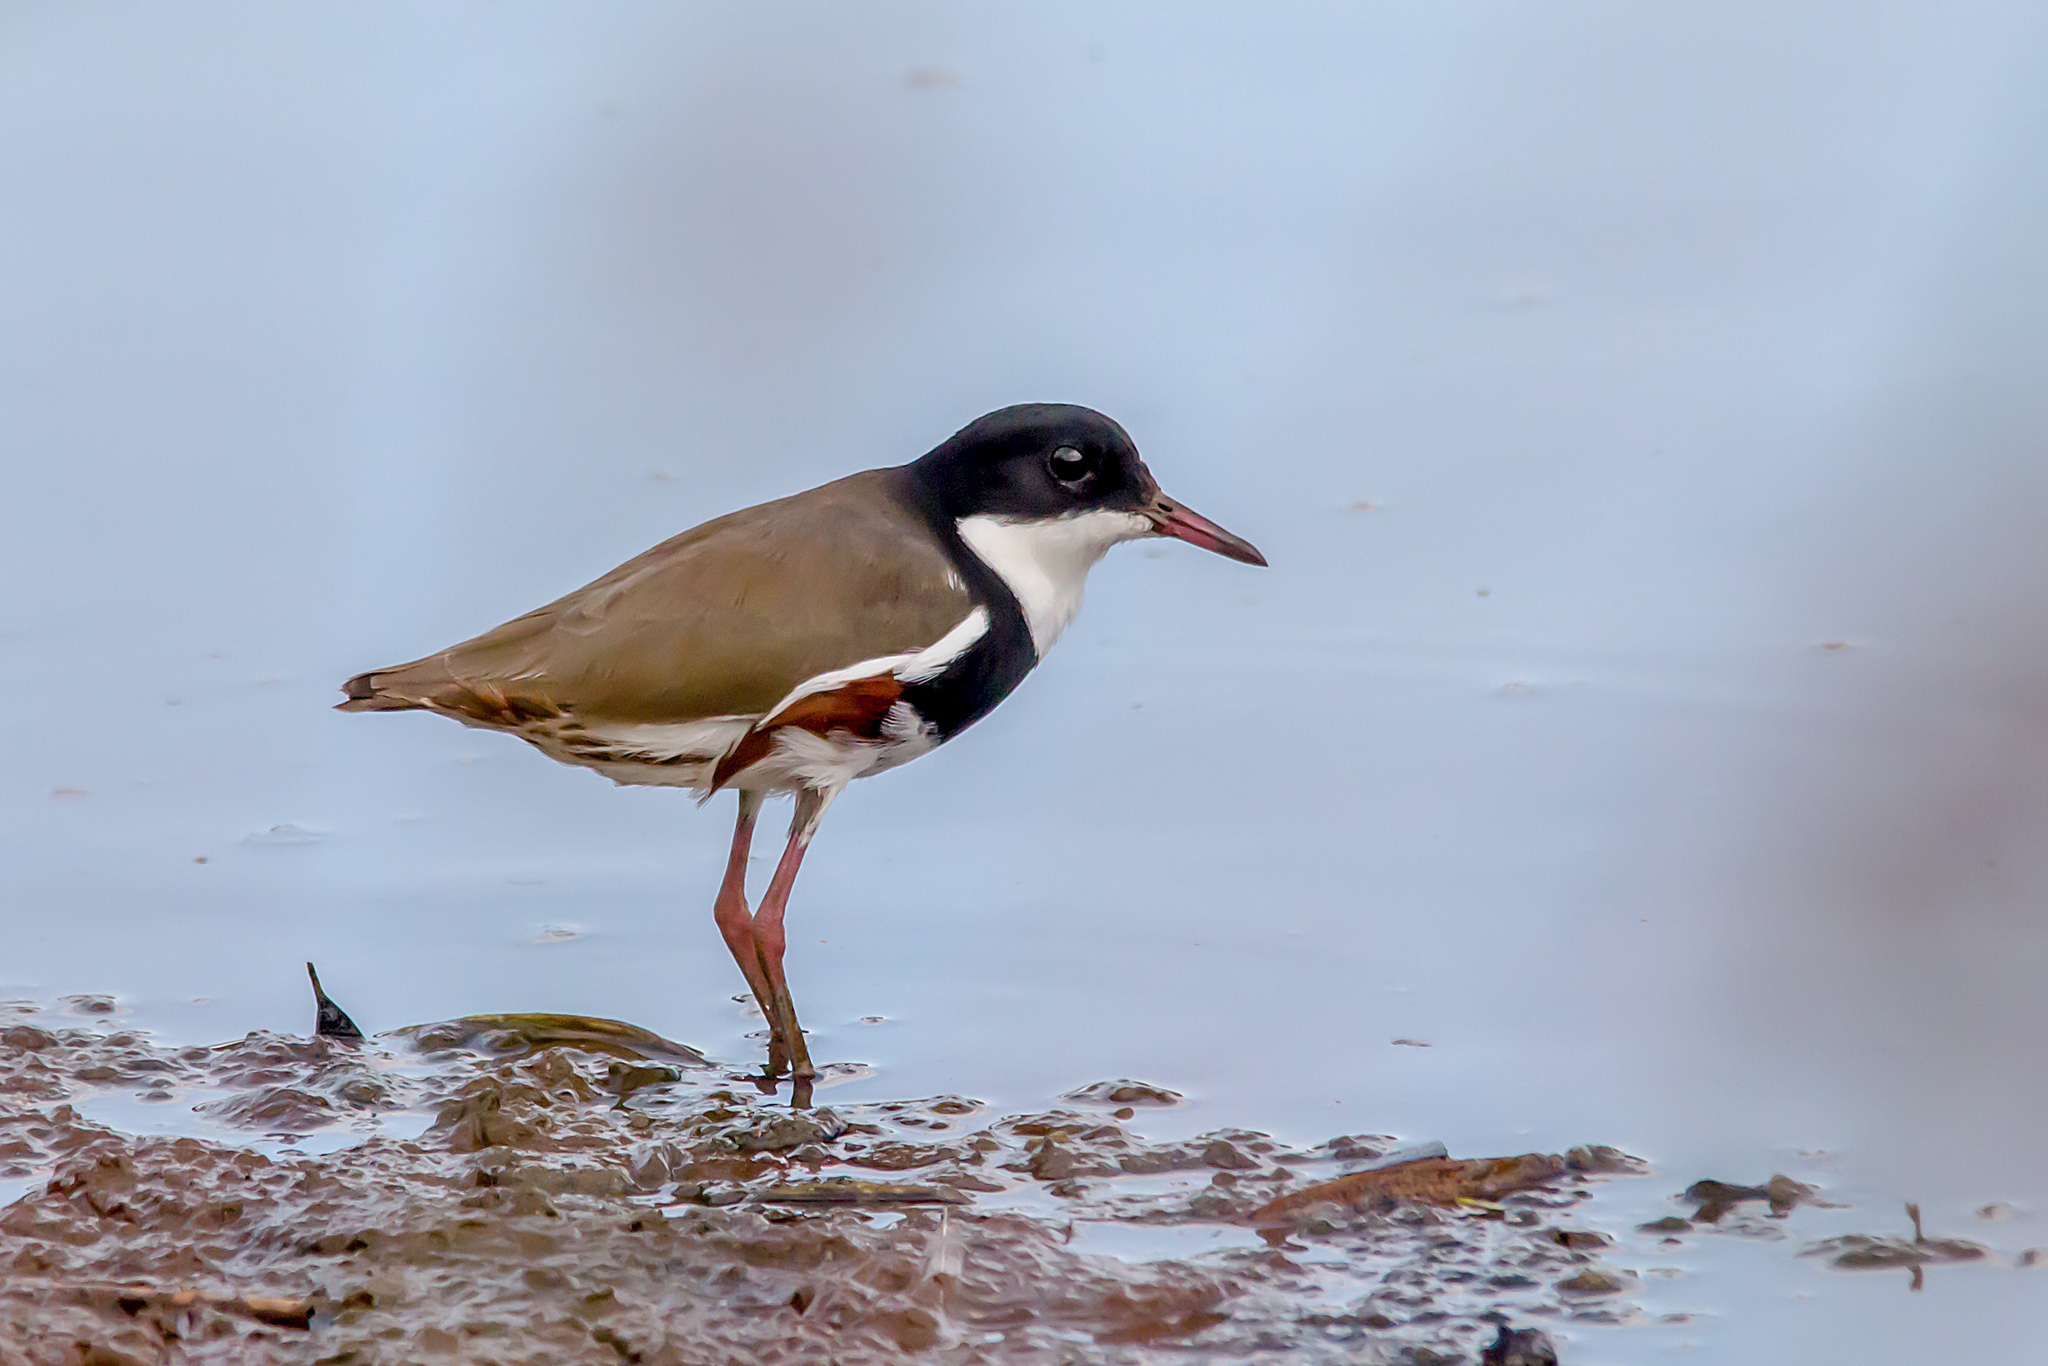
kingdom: Animalia
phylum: Chordata
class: Aves
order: Charadriiformes
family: Charadriidae
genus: Erythrogonys
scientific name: Erythrogonys cinctus
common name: Red-kneed dotterel
